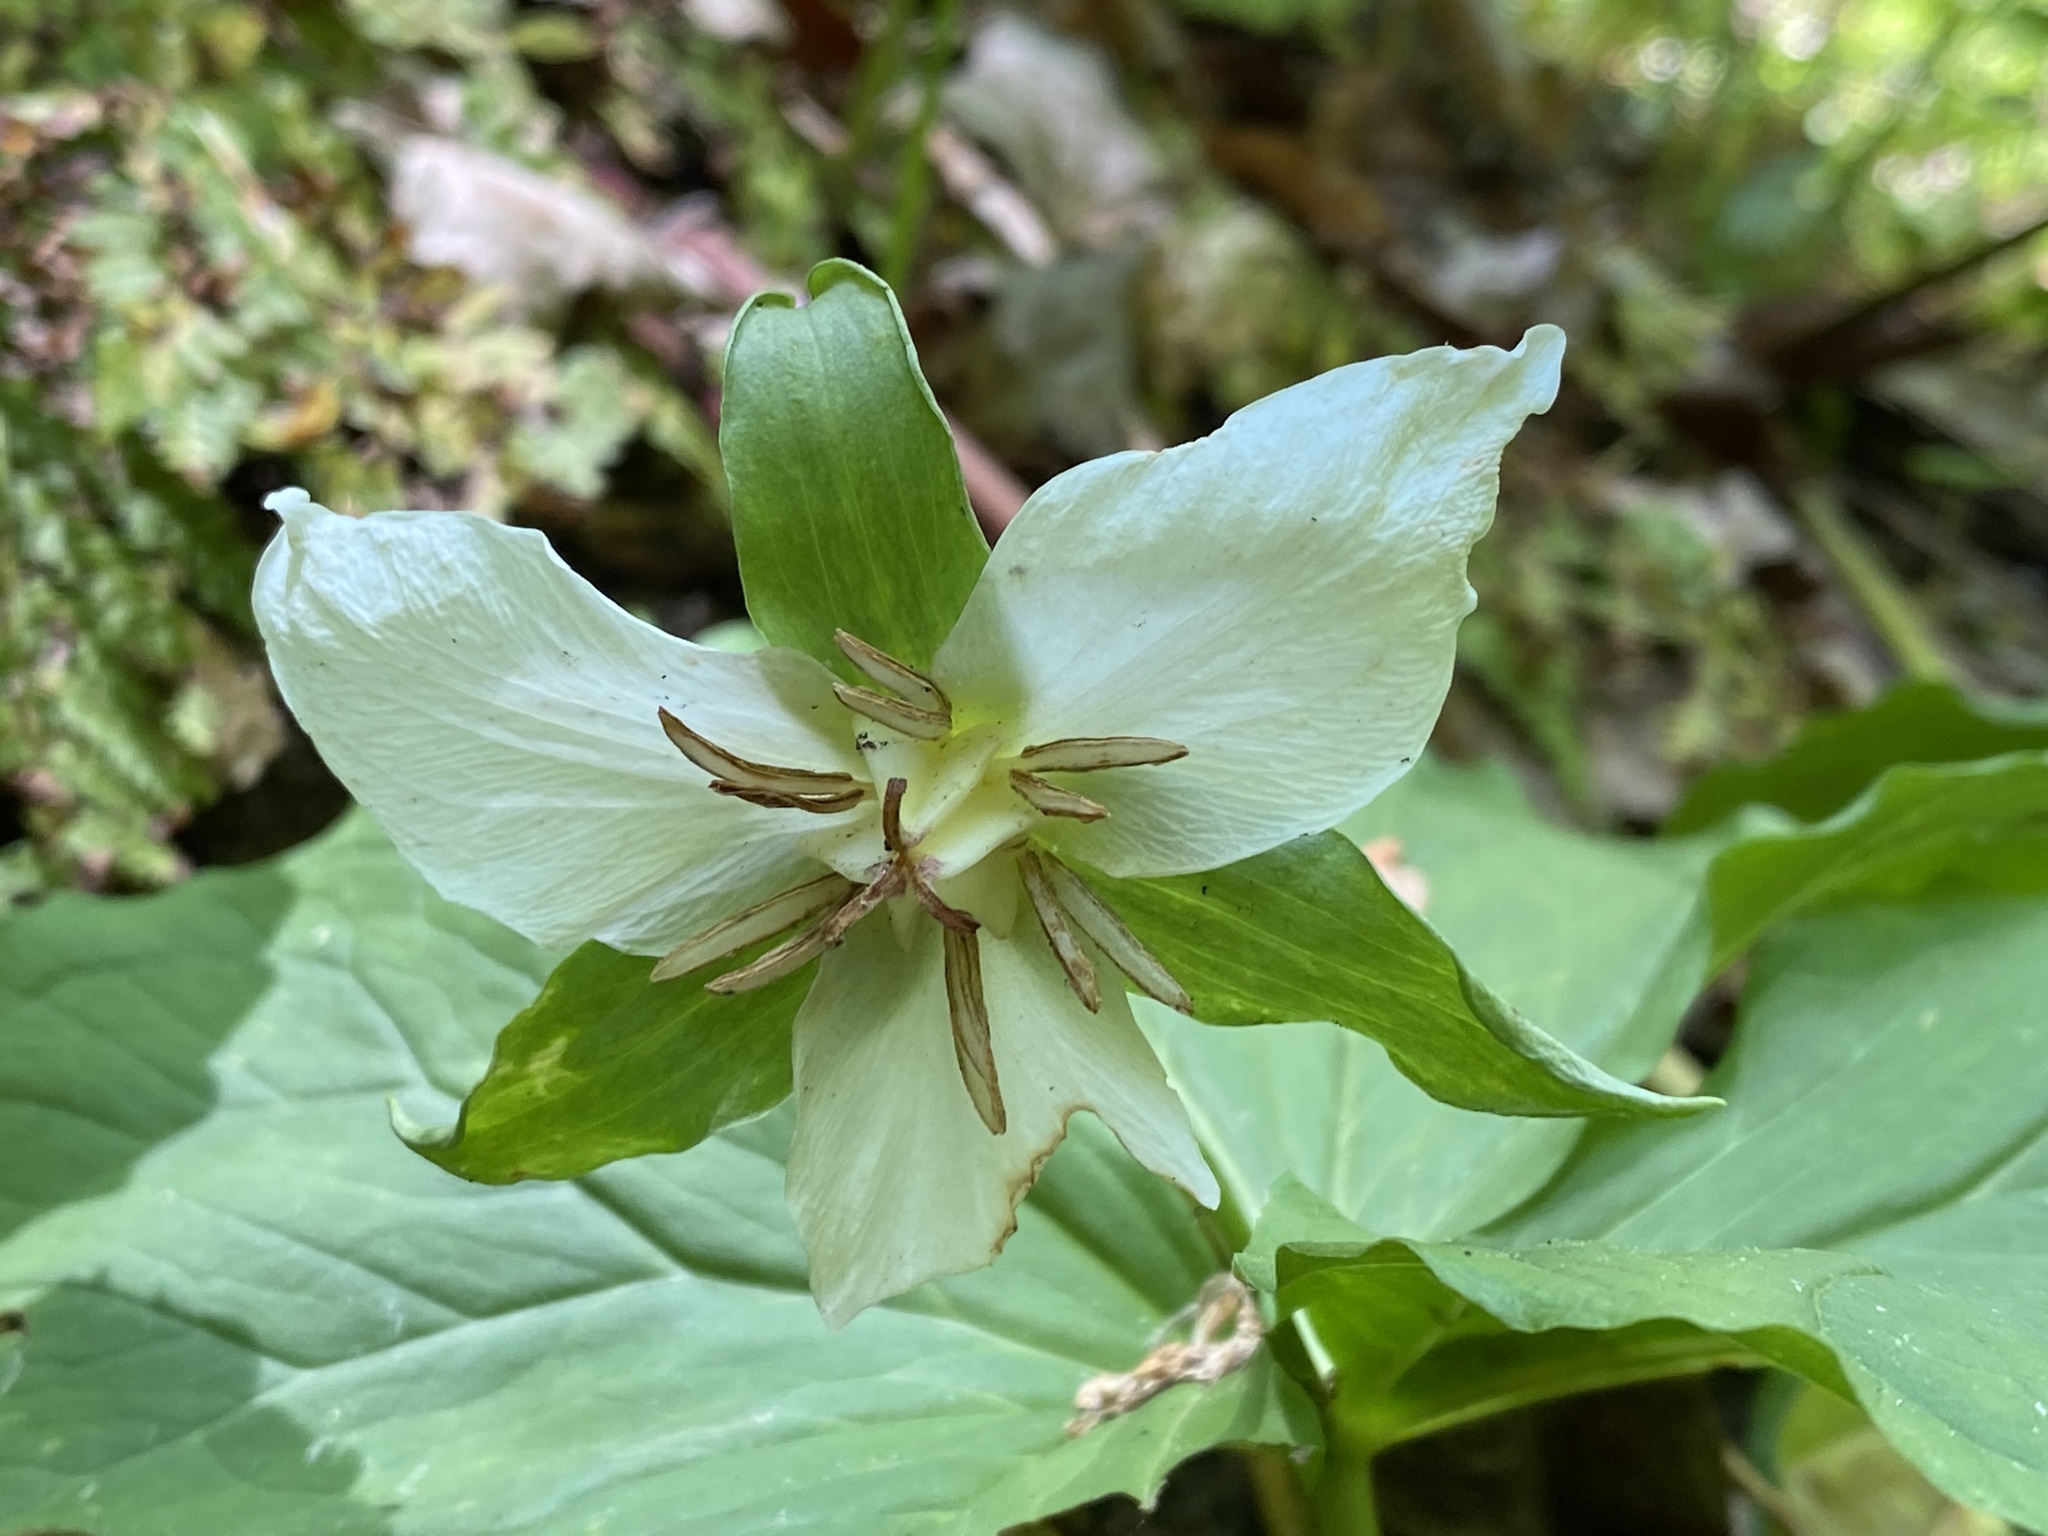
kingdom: Plantae
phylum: Tracheophyta
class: Liliopsida
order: Liliales
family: Melanthiaceae
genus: Trillium
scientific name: Trillium flexipes
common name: Drooping trillium
